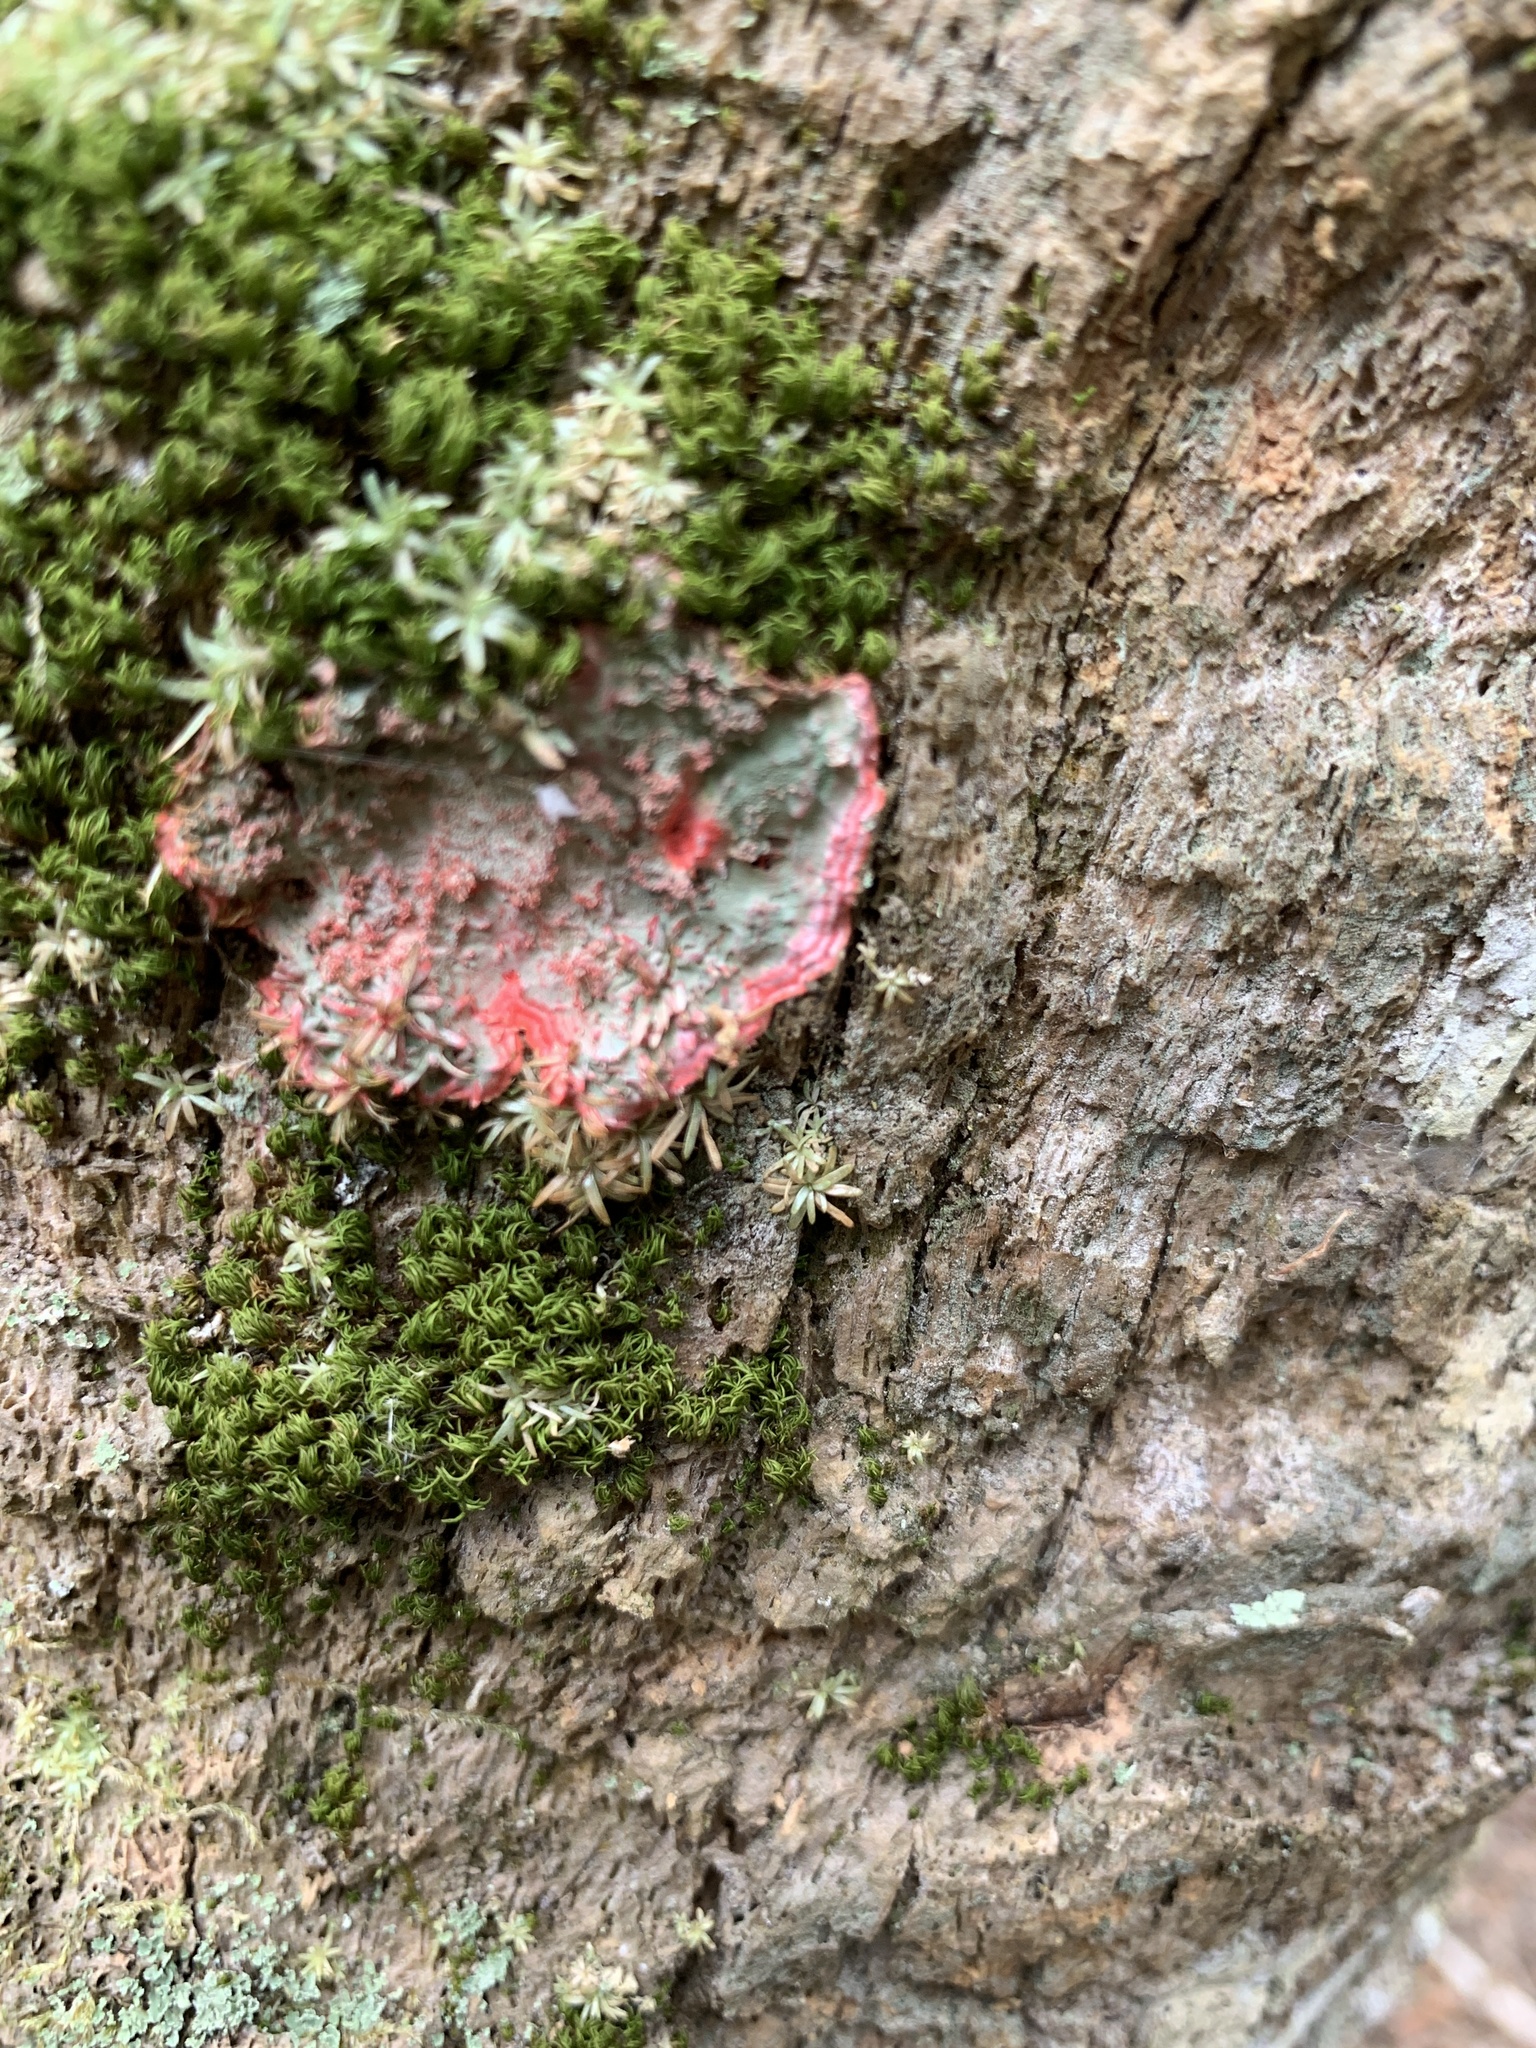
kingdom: Fungi
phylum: Ascomycota
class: Arthoniomycetes
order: Arthoniales
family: Arthoniaceae
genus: Herpothallon
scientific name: Herpothallon rubrocinctum
